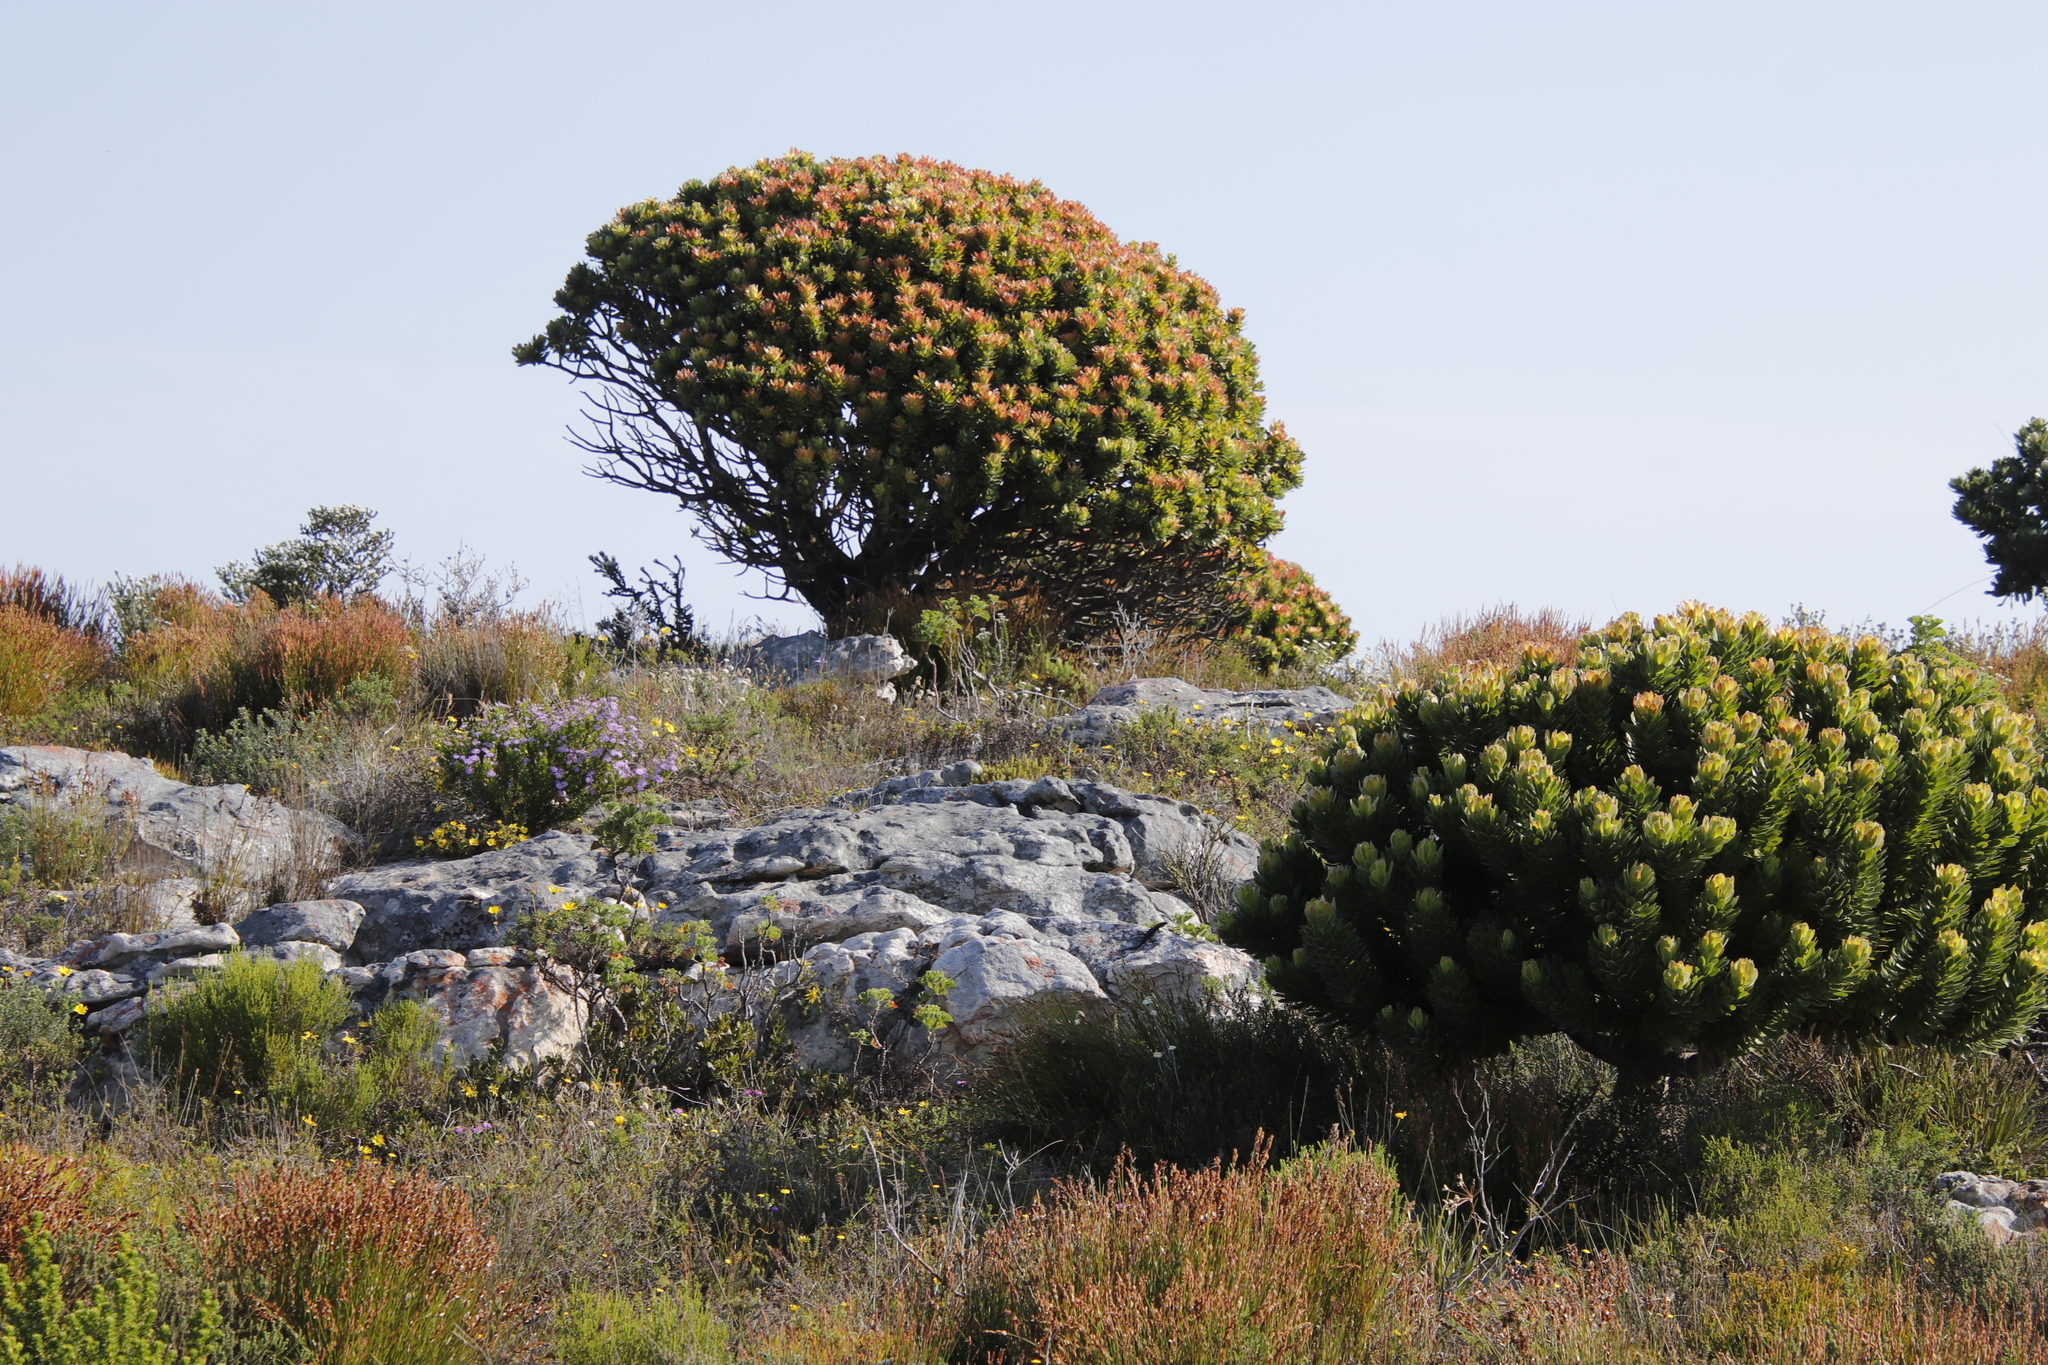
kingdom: Plantae
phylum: Tracheophyta
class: Magnoliopsida
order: Proteales
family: Proteaceae
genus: Mimetes
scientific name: Mimetes fimbriifolius
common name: Fringed bottlebrush
